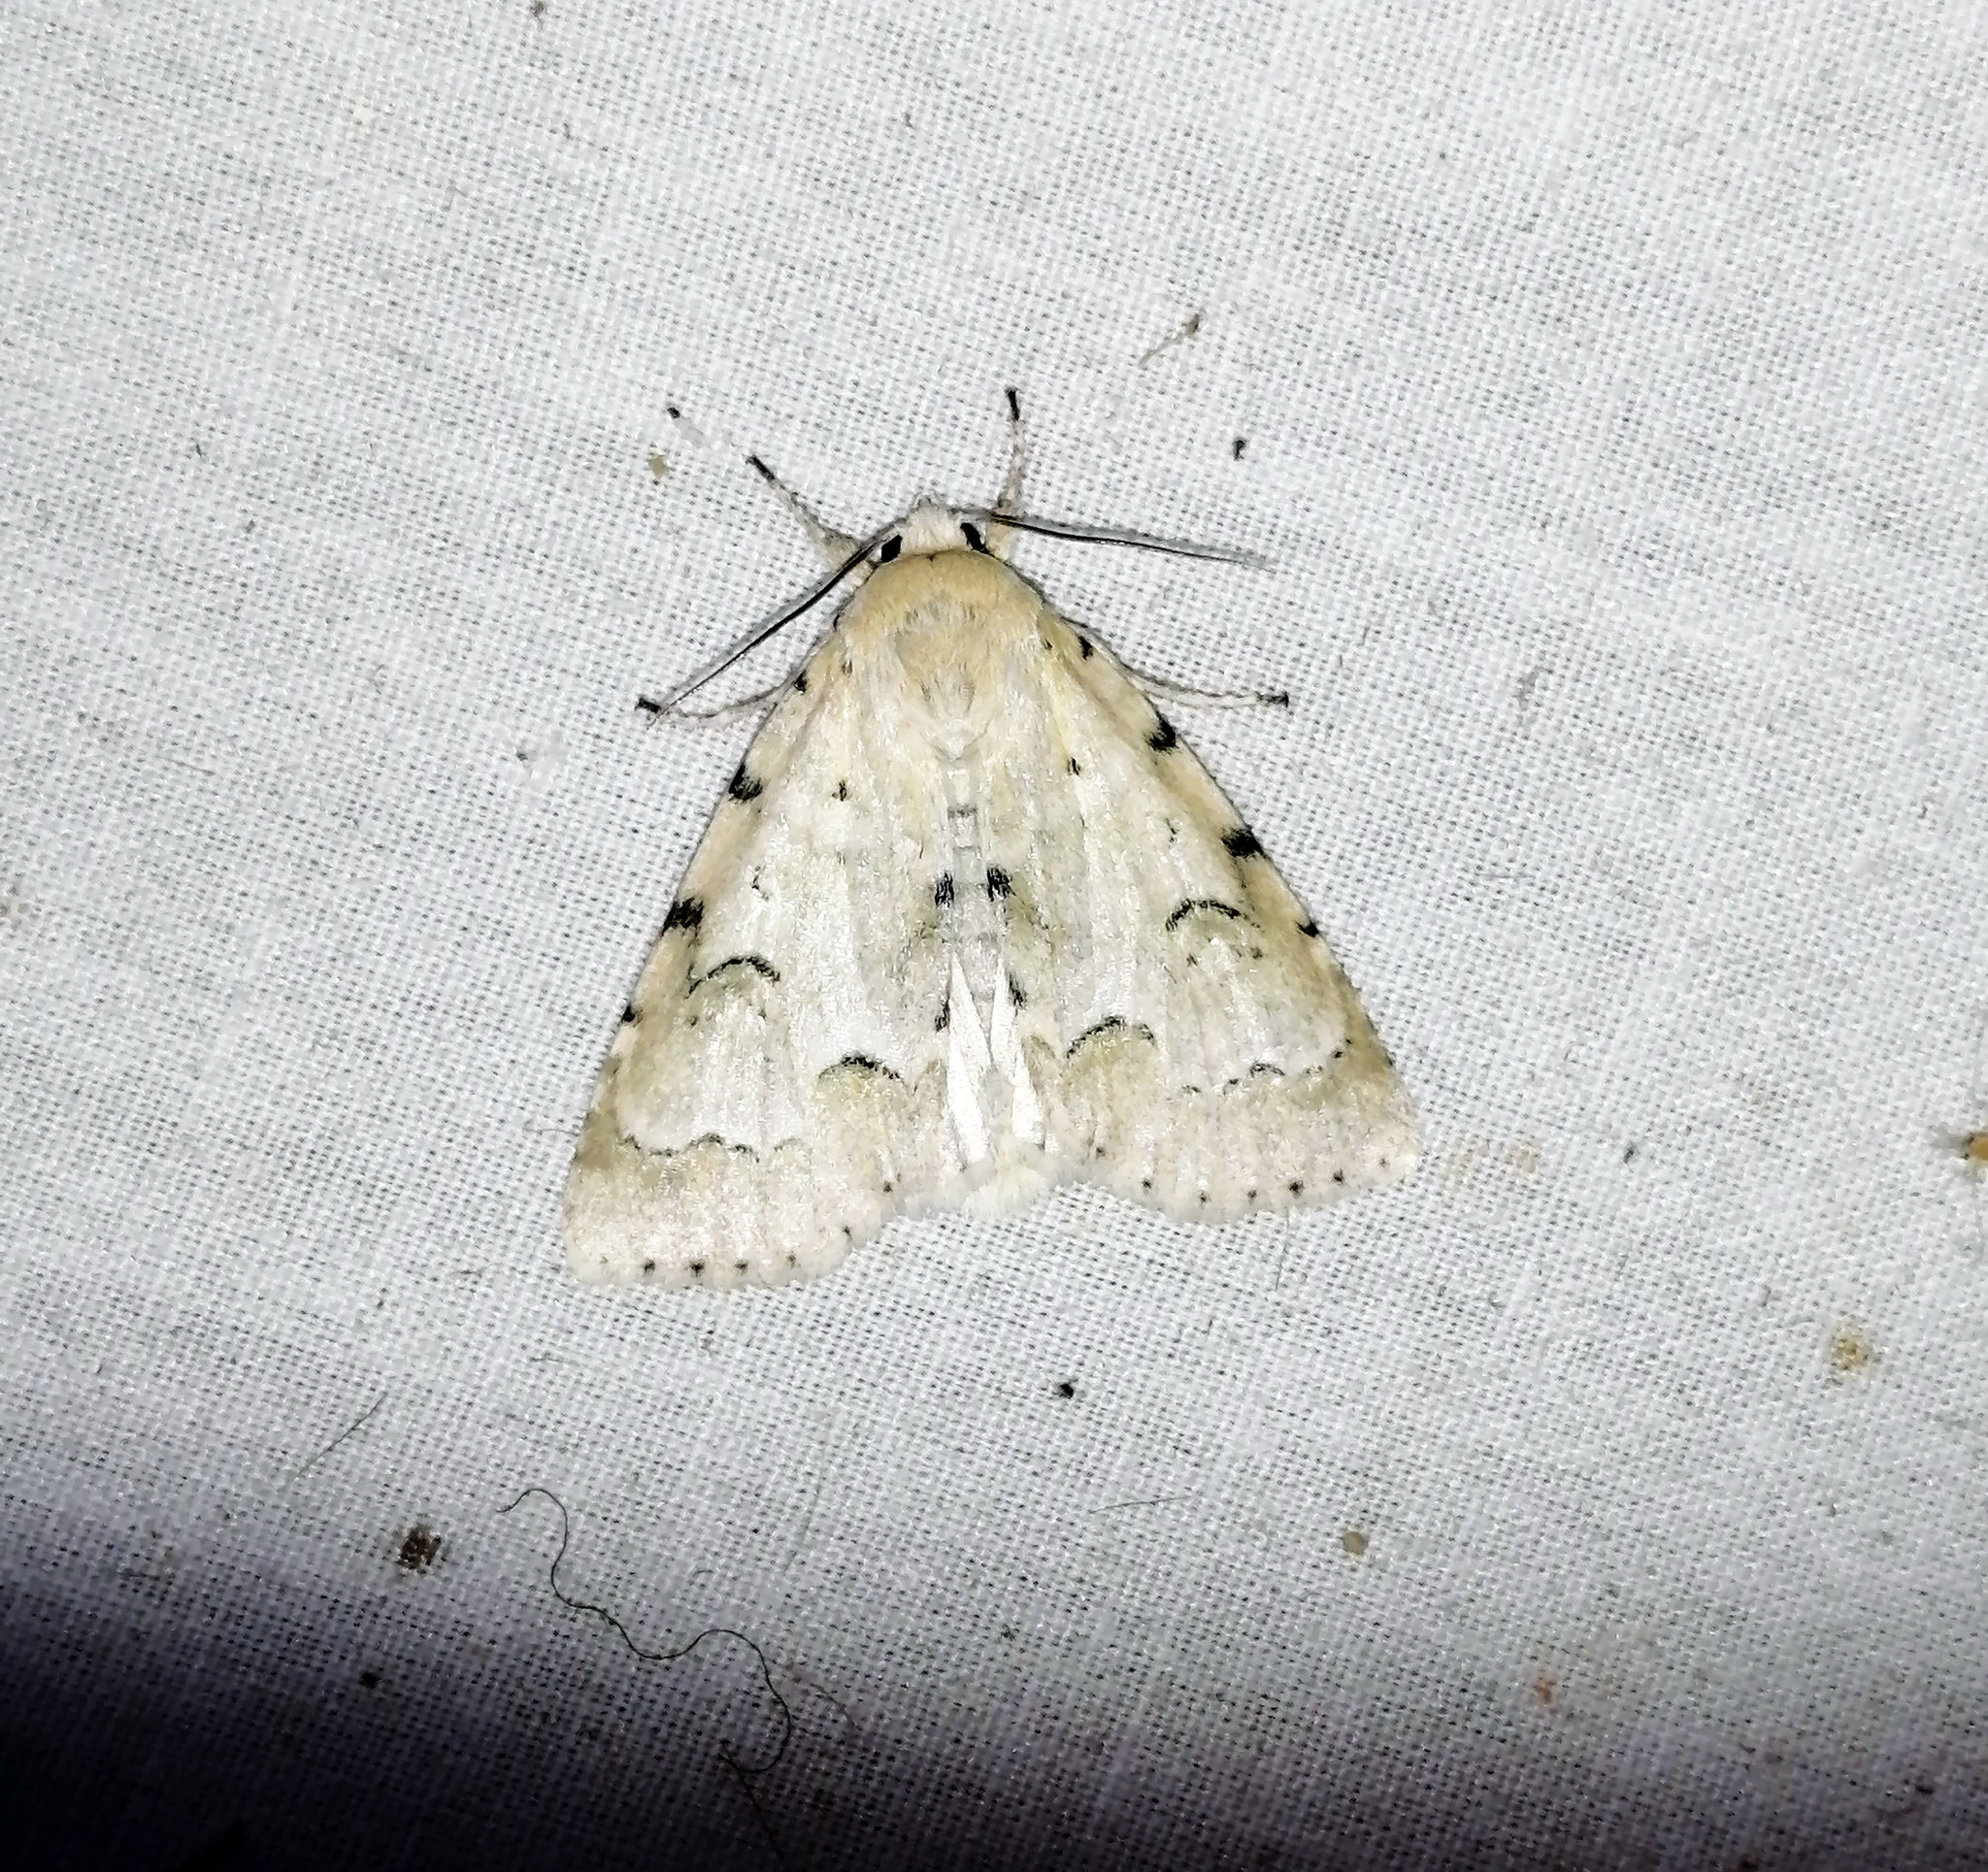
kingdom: Animalia
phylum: Arthropoda
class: Insecta
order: Lepidoptera
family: Noctuidae
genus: Acronicta
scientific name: Acronicta innotata
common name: Unmarked dagger
